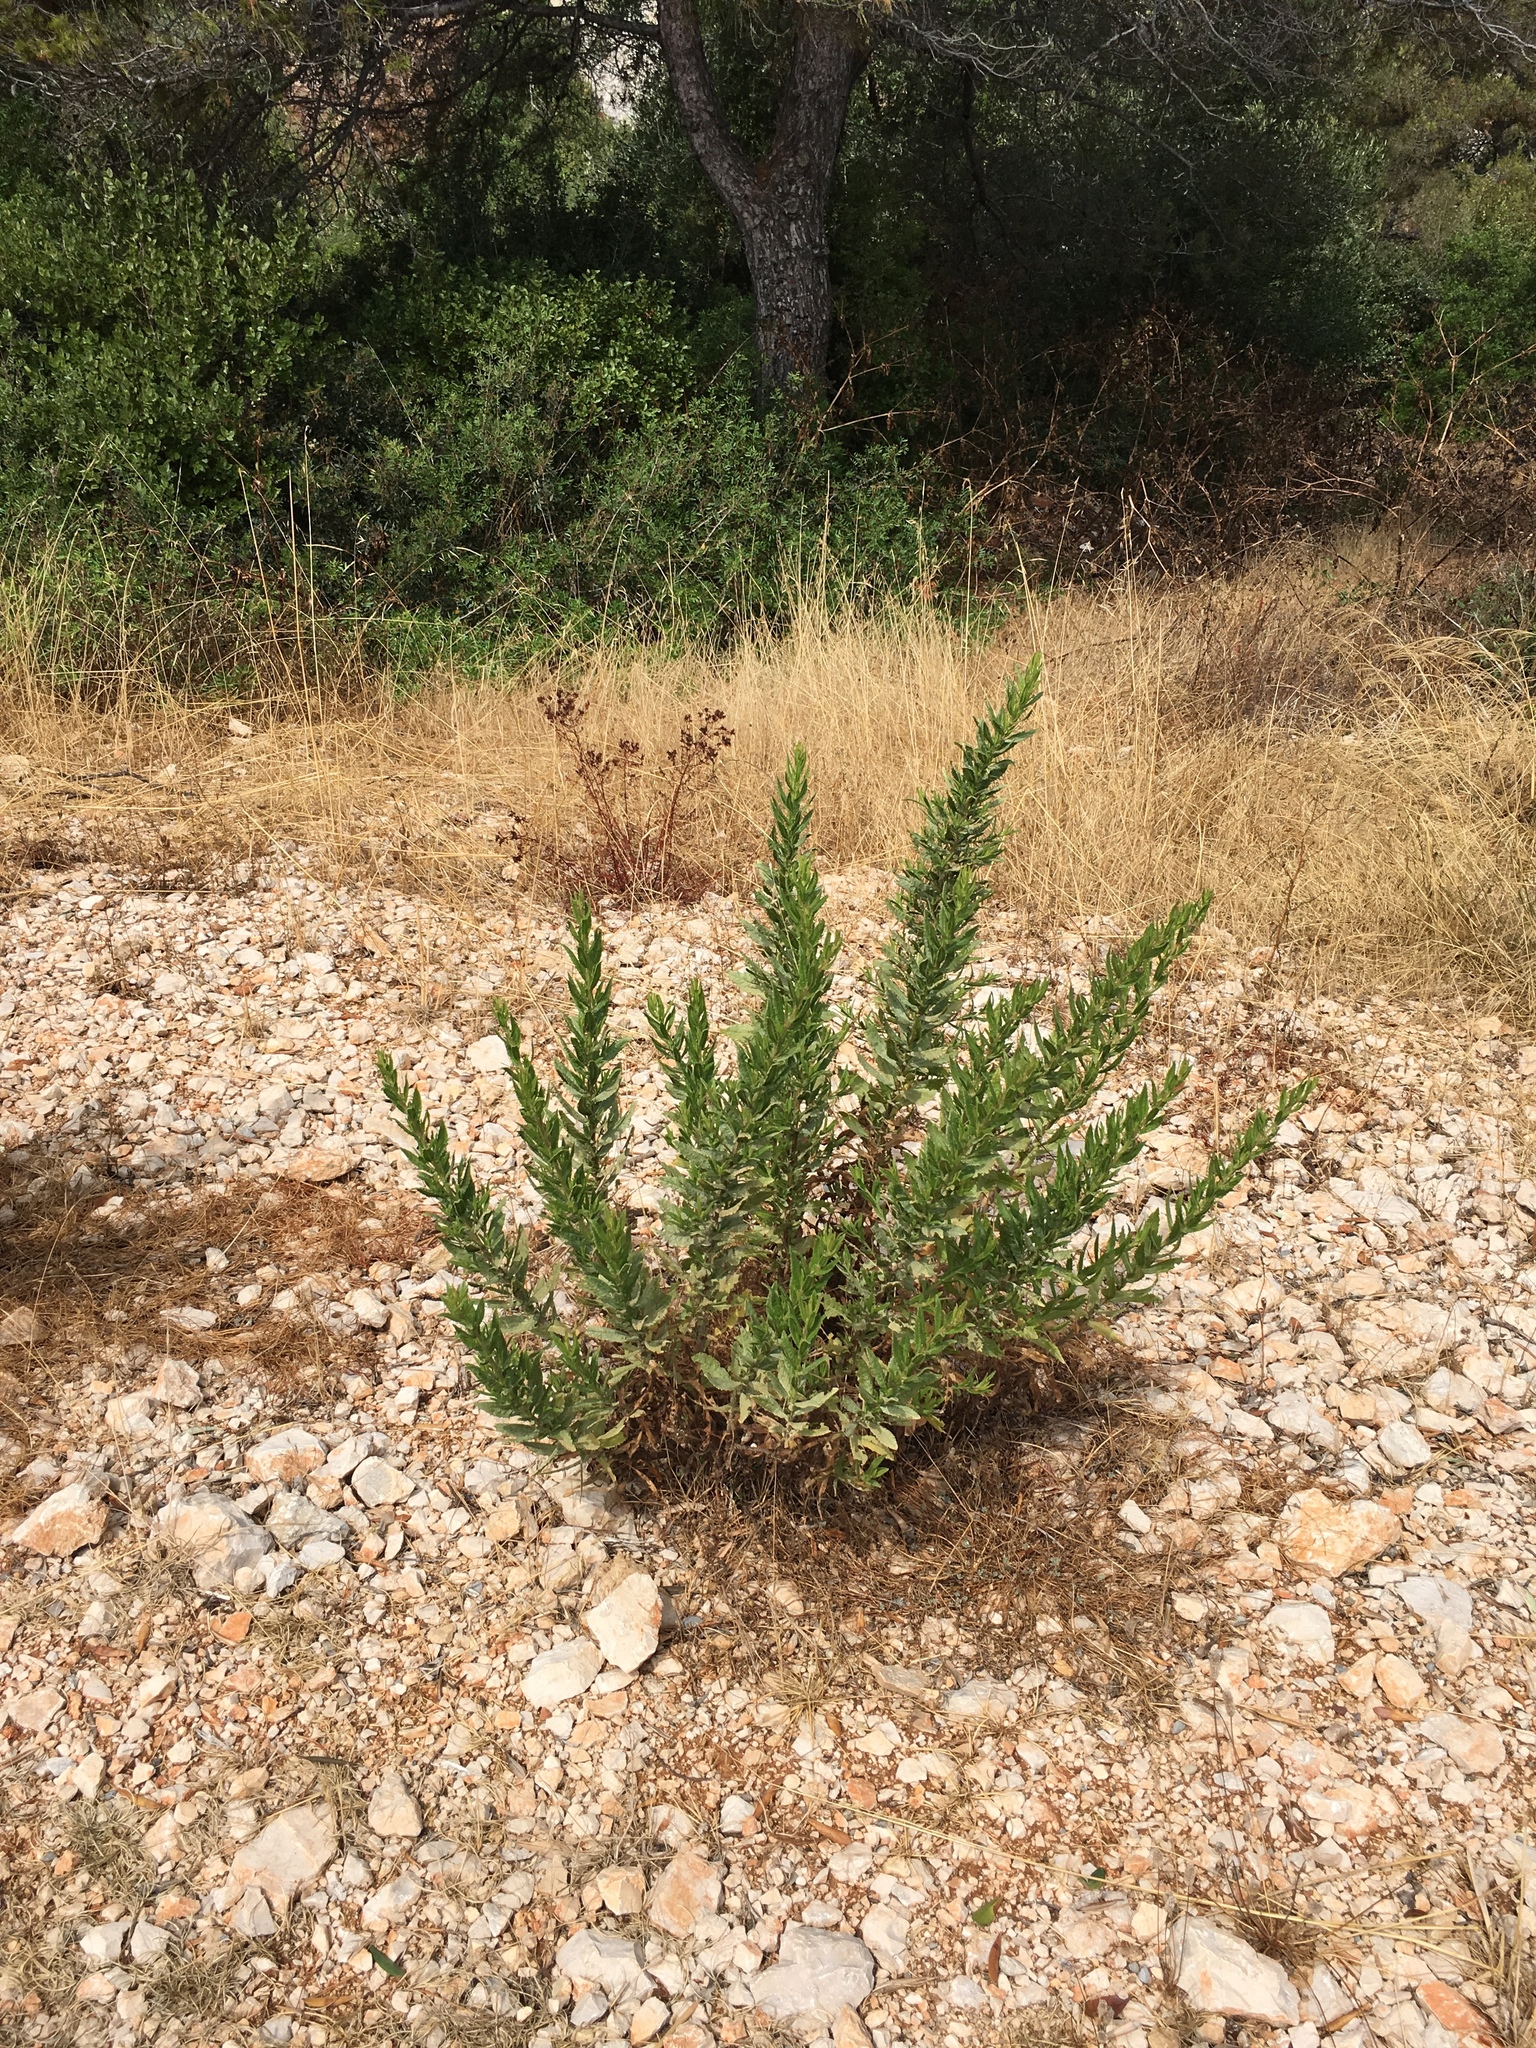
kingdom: Plantae
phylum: Tracheophyta
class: Magnoliopsida
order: Asterales
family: Asteraceae
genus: Dittrichia
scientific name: Dittrichia viscosa
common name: Woody fleabane
